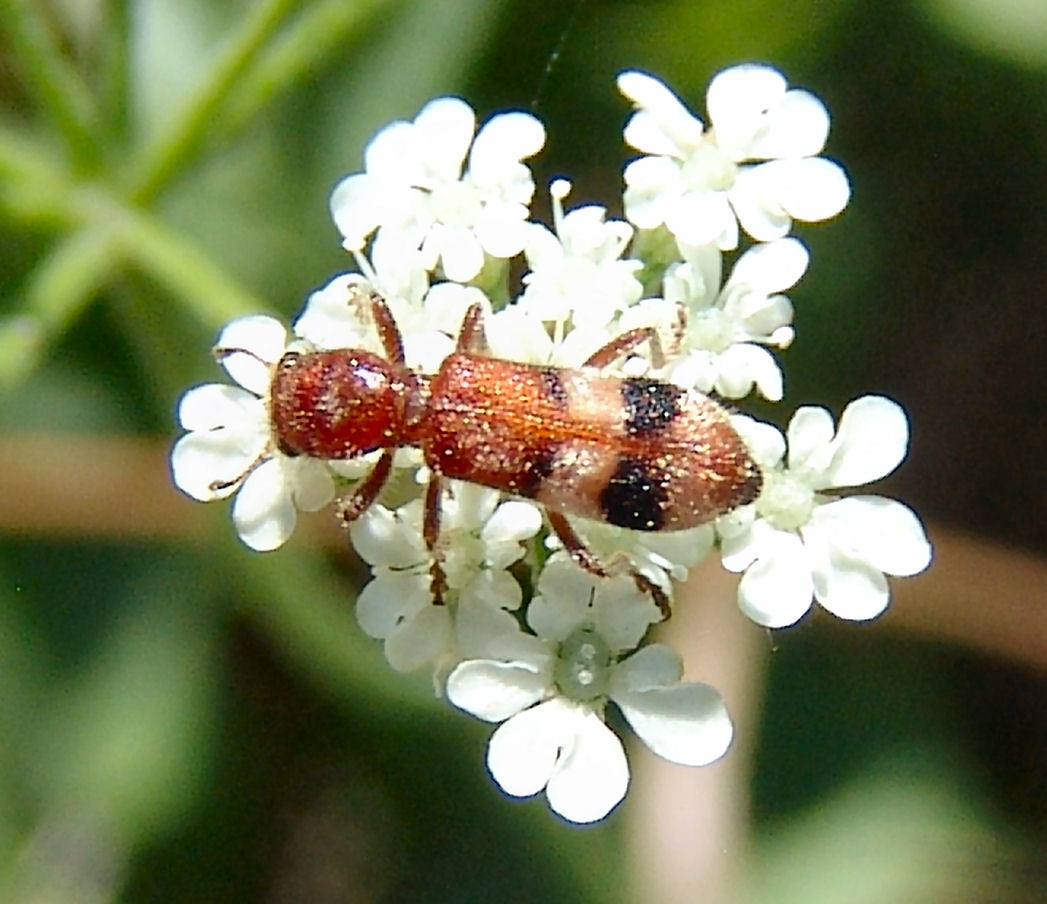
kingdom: Animalia
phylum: Arthropoda
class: Insecta
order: Coleoptera
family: Cleridae
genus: Enoclerus
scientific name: Enoclerus rosmarus
